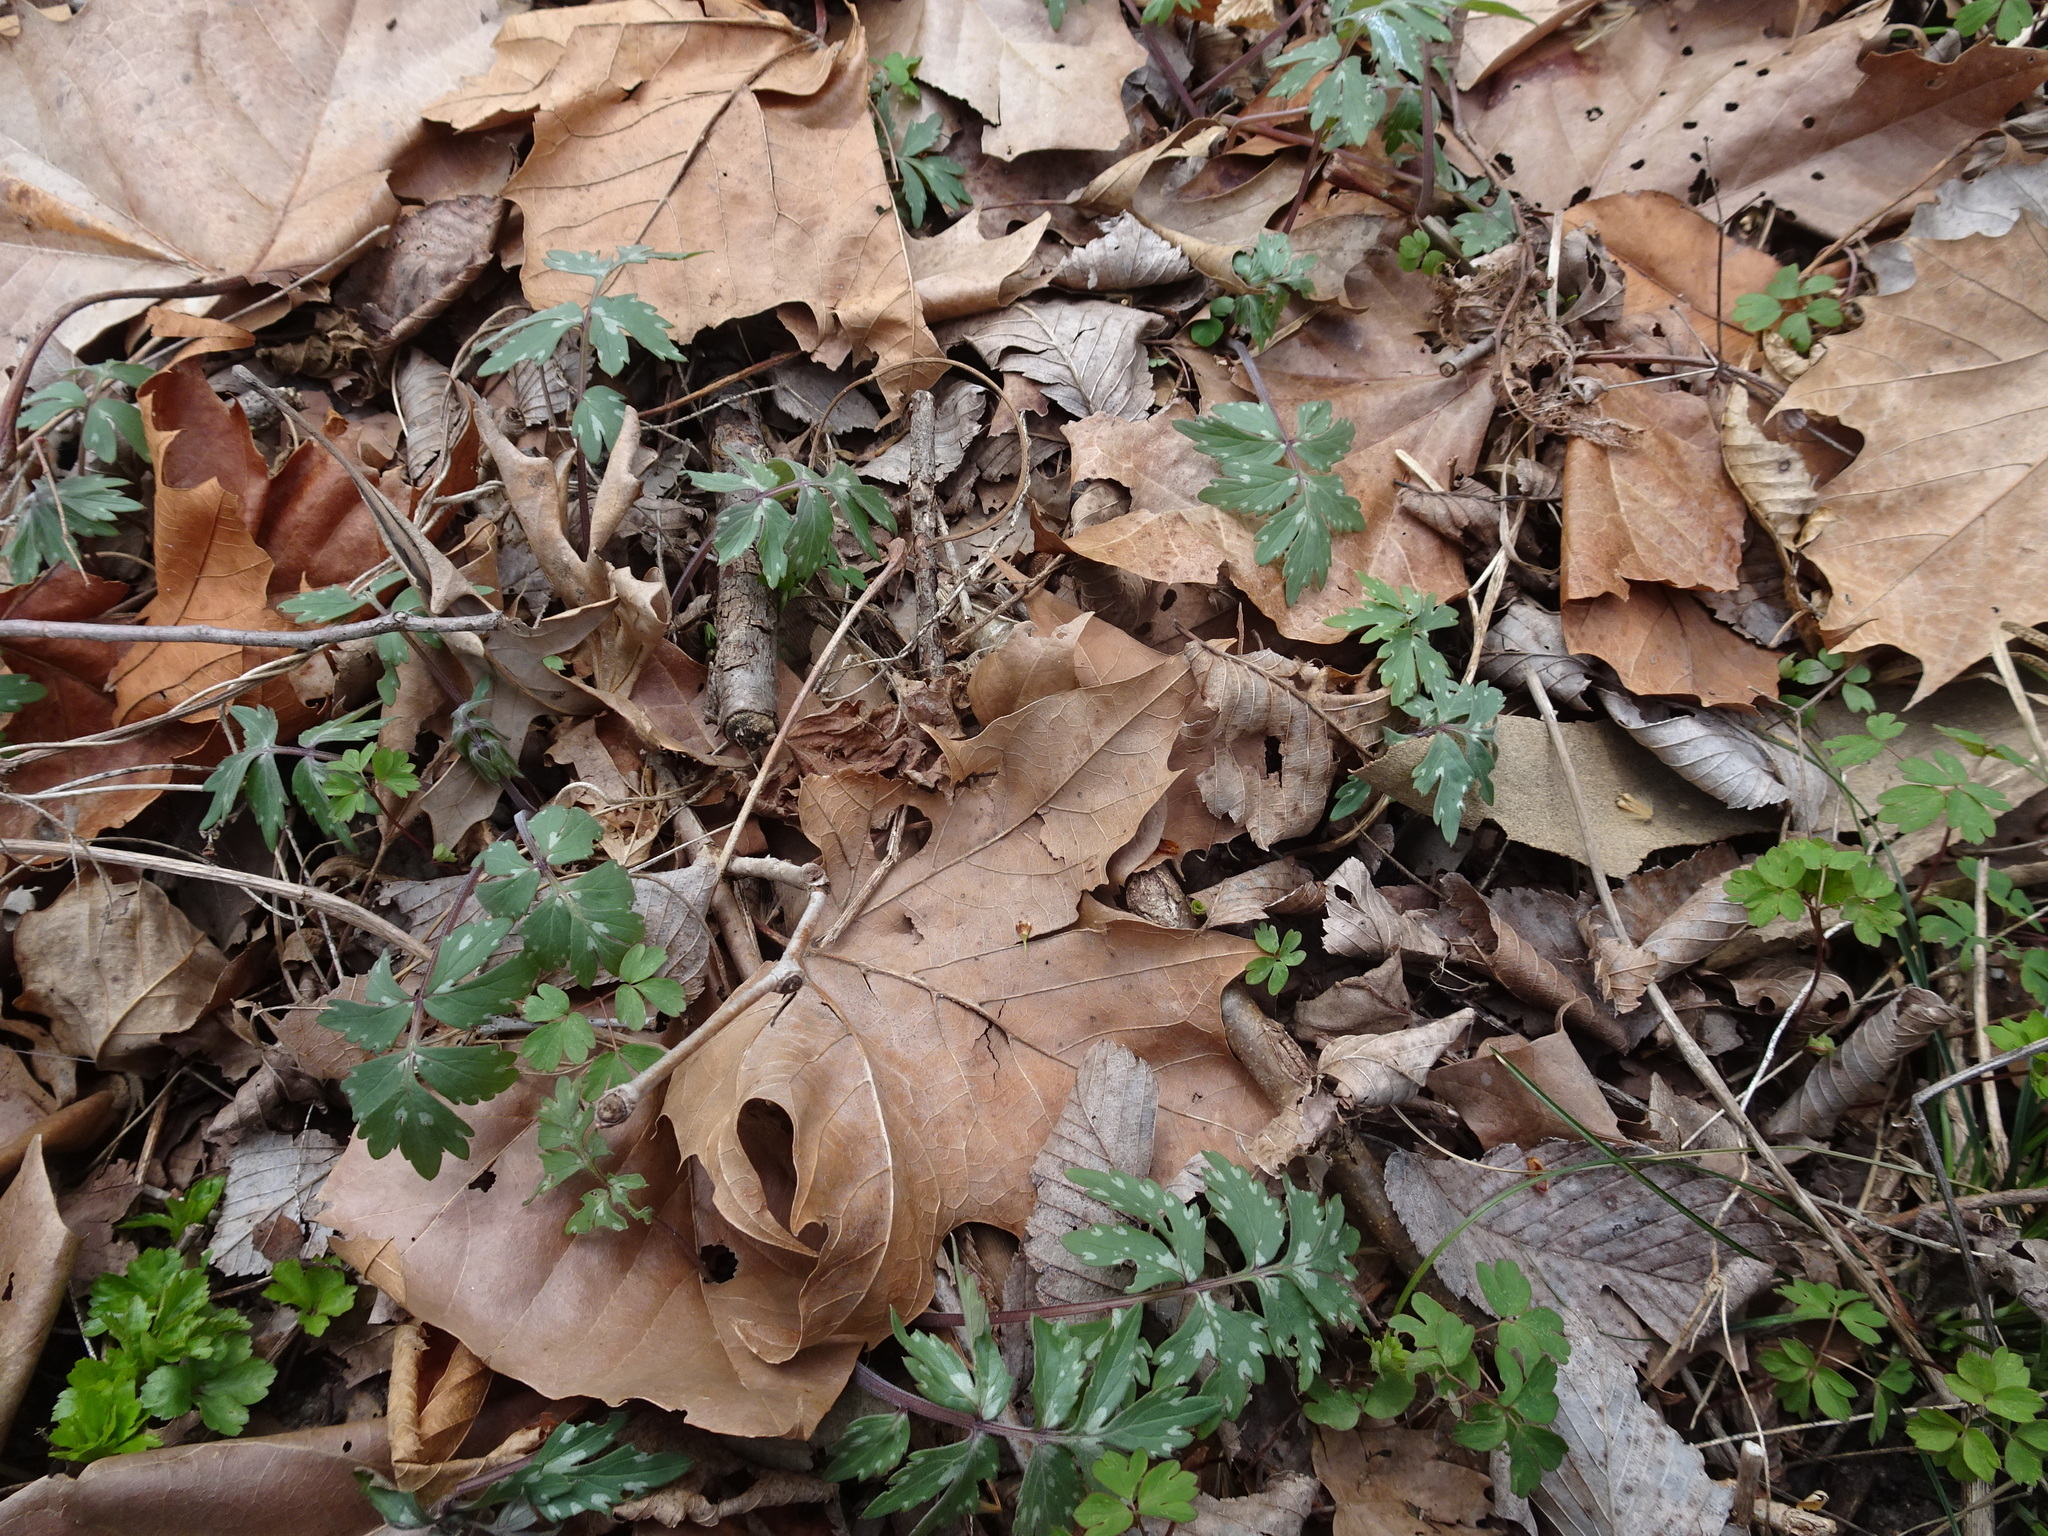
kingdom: Plantae
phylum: Tracheophyta
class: Magnoliopsida
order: Boraginales
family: Hydrophyllaceae
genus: Hydrophyllum
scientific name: Hydrophyllum virginianum
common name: Virginia waterleaf
